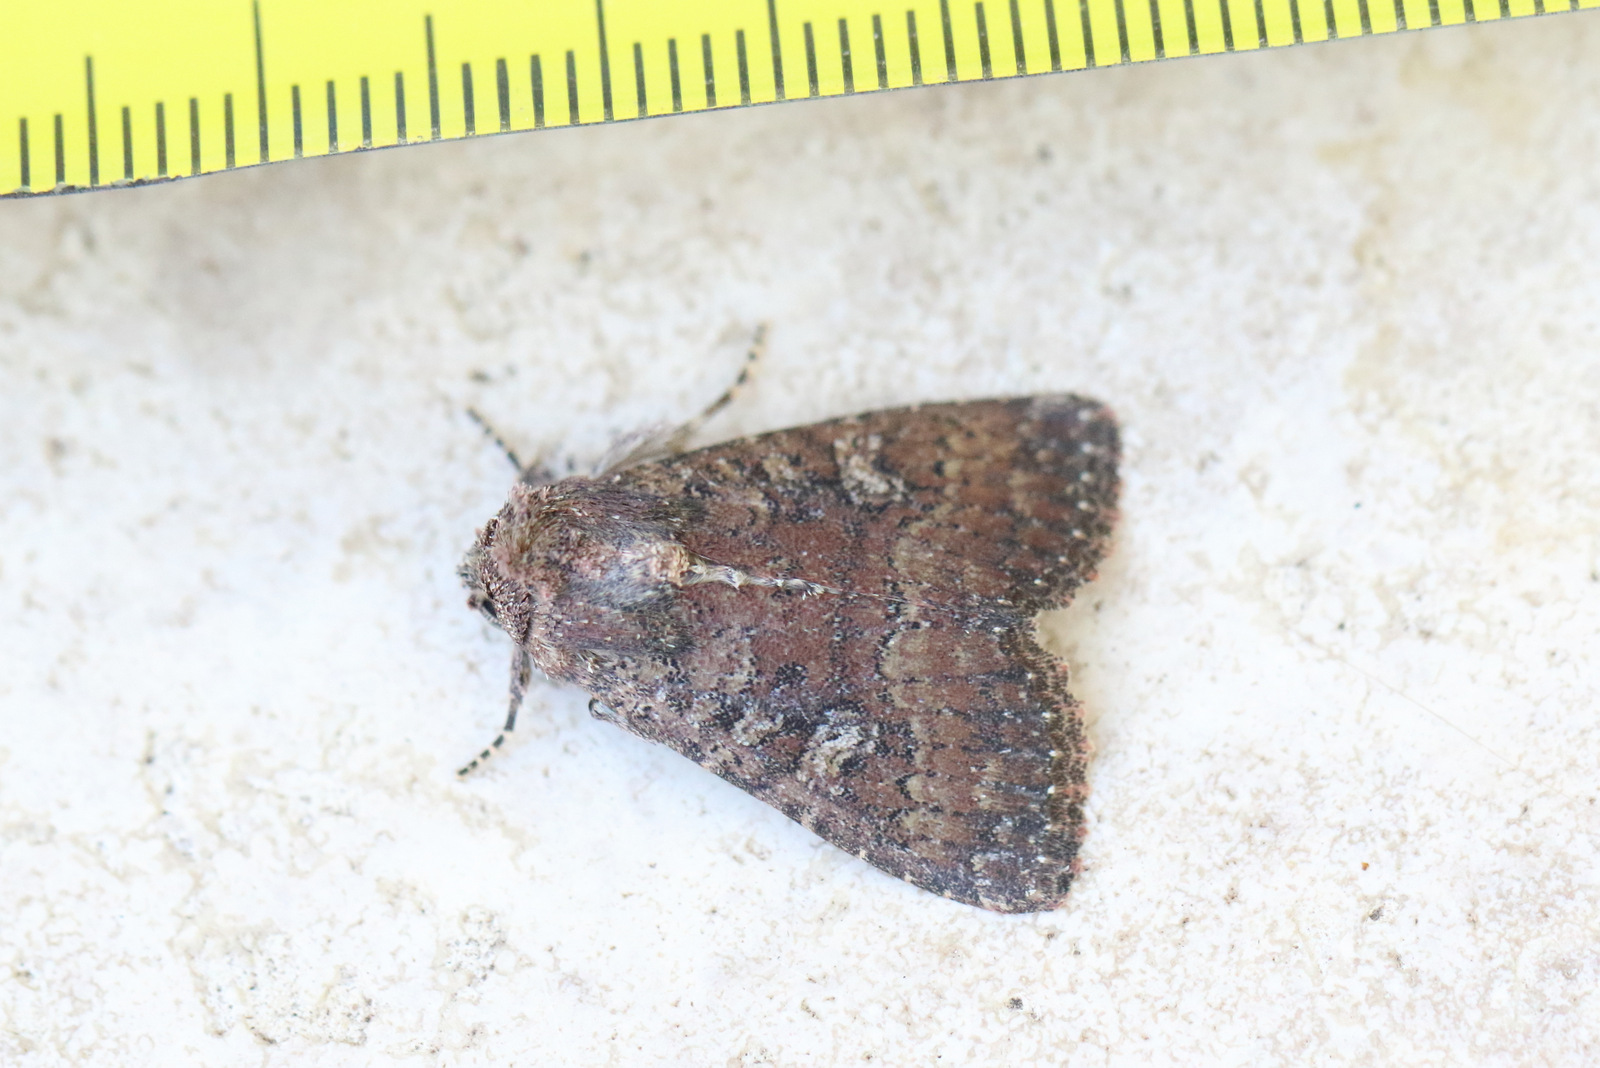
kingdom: Animalia
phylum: Arthropoda
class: Insecta
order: Lepidoptera
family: Noctuidae
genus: Condica
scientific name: Condica illecta
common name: Cutworm
